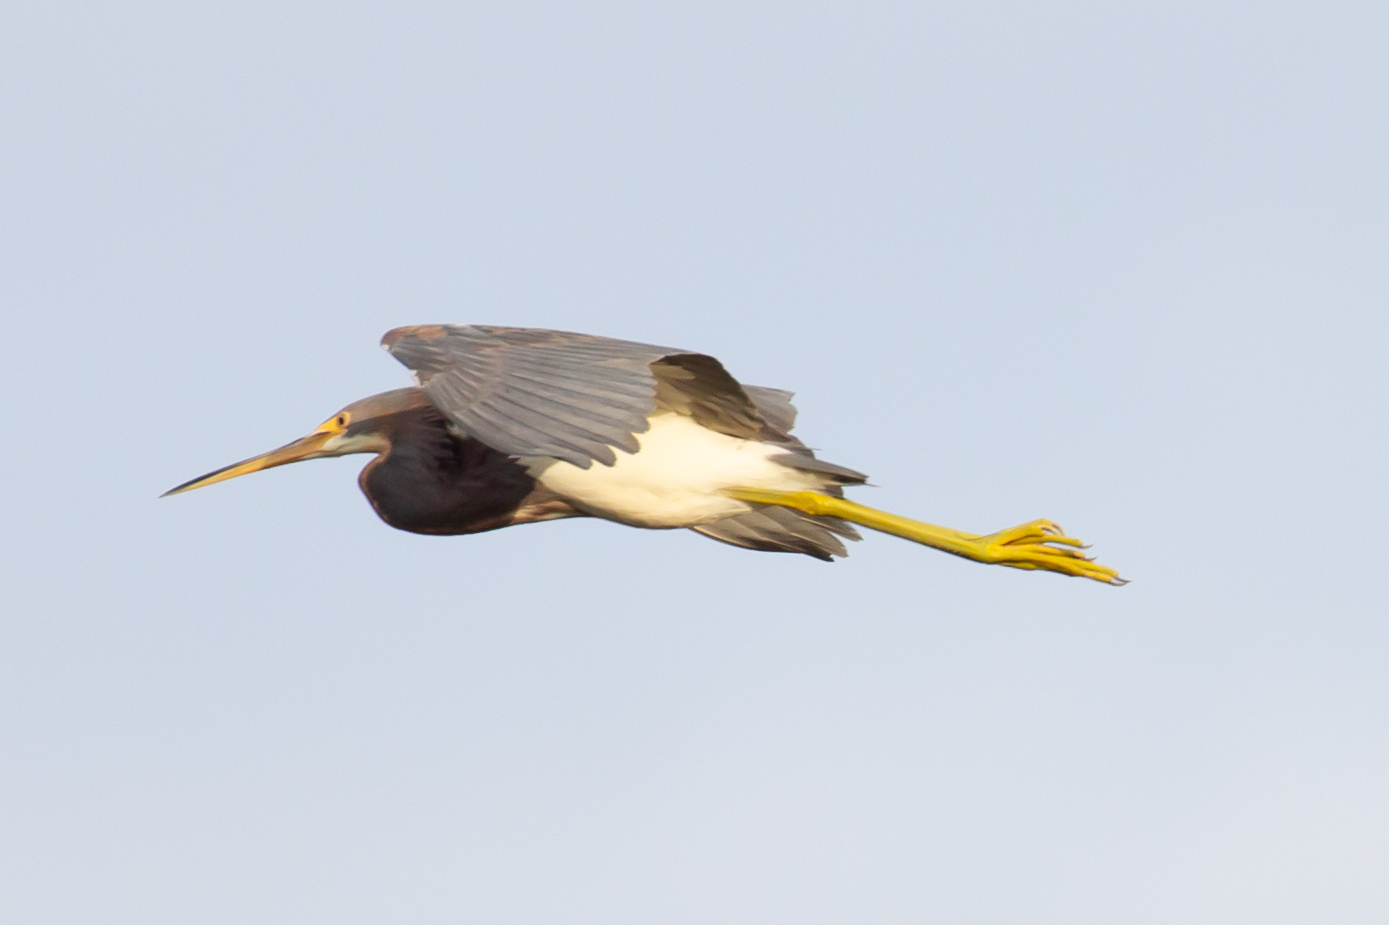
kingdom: Animalia
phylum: Chordata
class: Aves
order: Pelecaniformes
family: Ardeidae
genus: Egretta
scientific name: Egretta tricolor
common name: Tricolored heron
